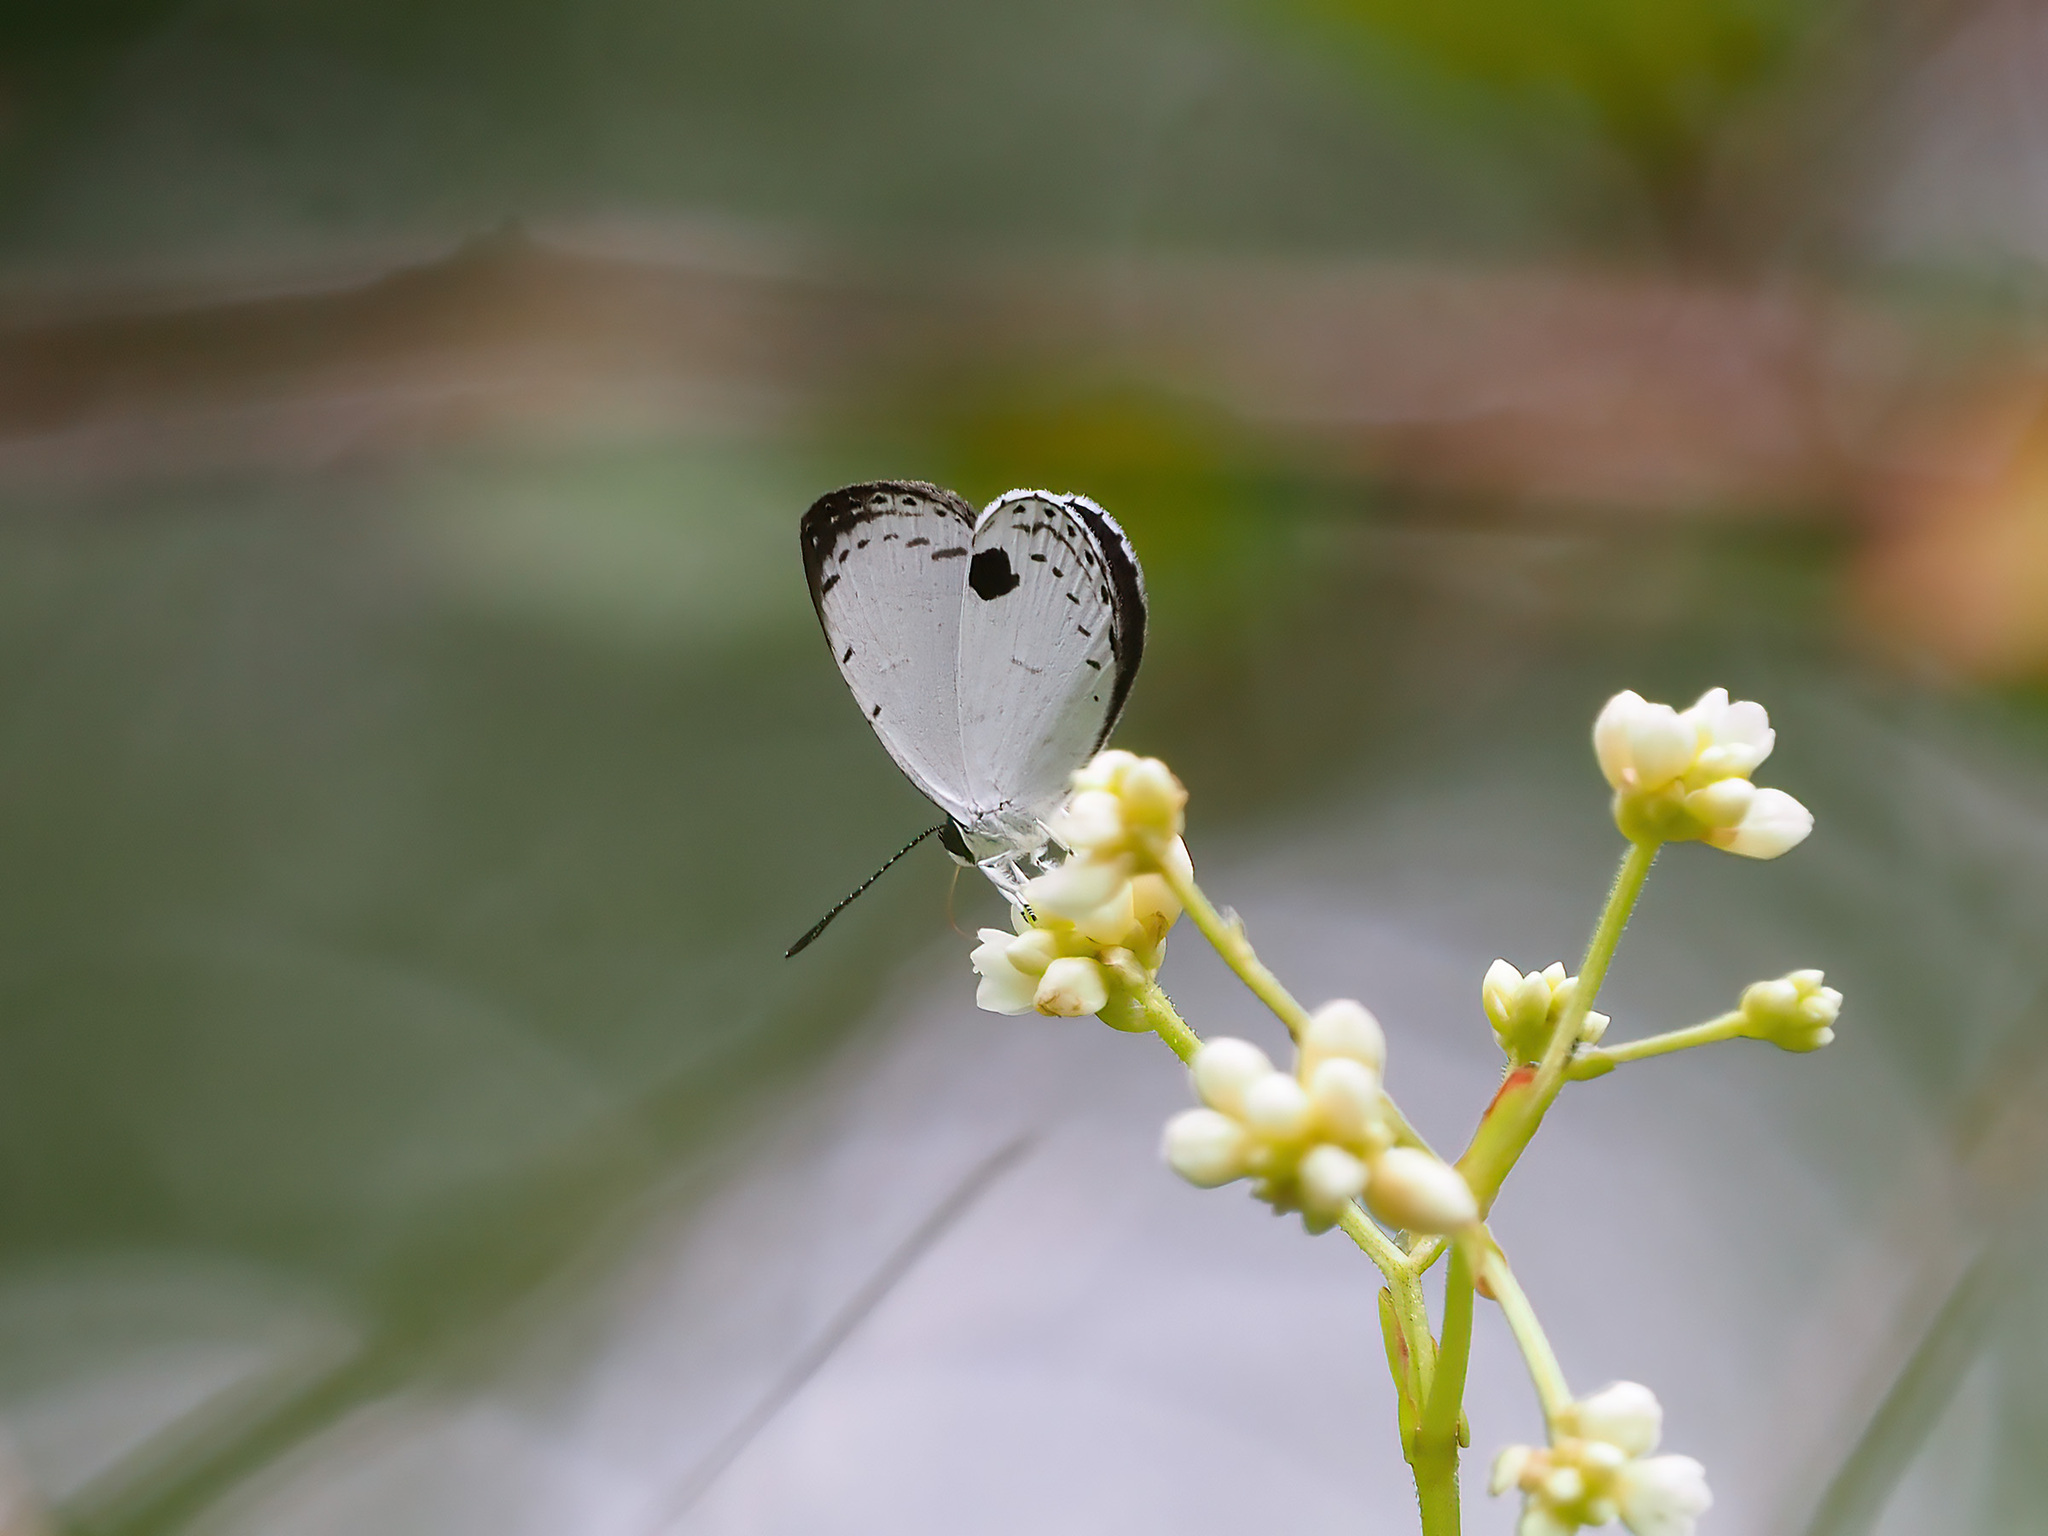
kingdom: Animalia
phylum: Arthropoda
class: Insecta
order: Lepidoptera
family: Lycaenidae
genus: Pithecops
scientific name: Pithecops corvus
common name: Forest quaker
